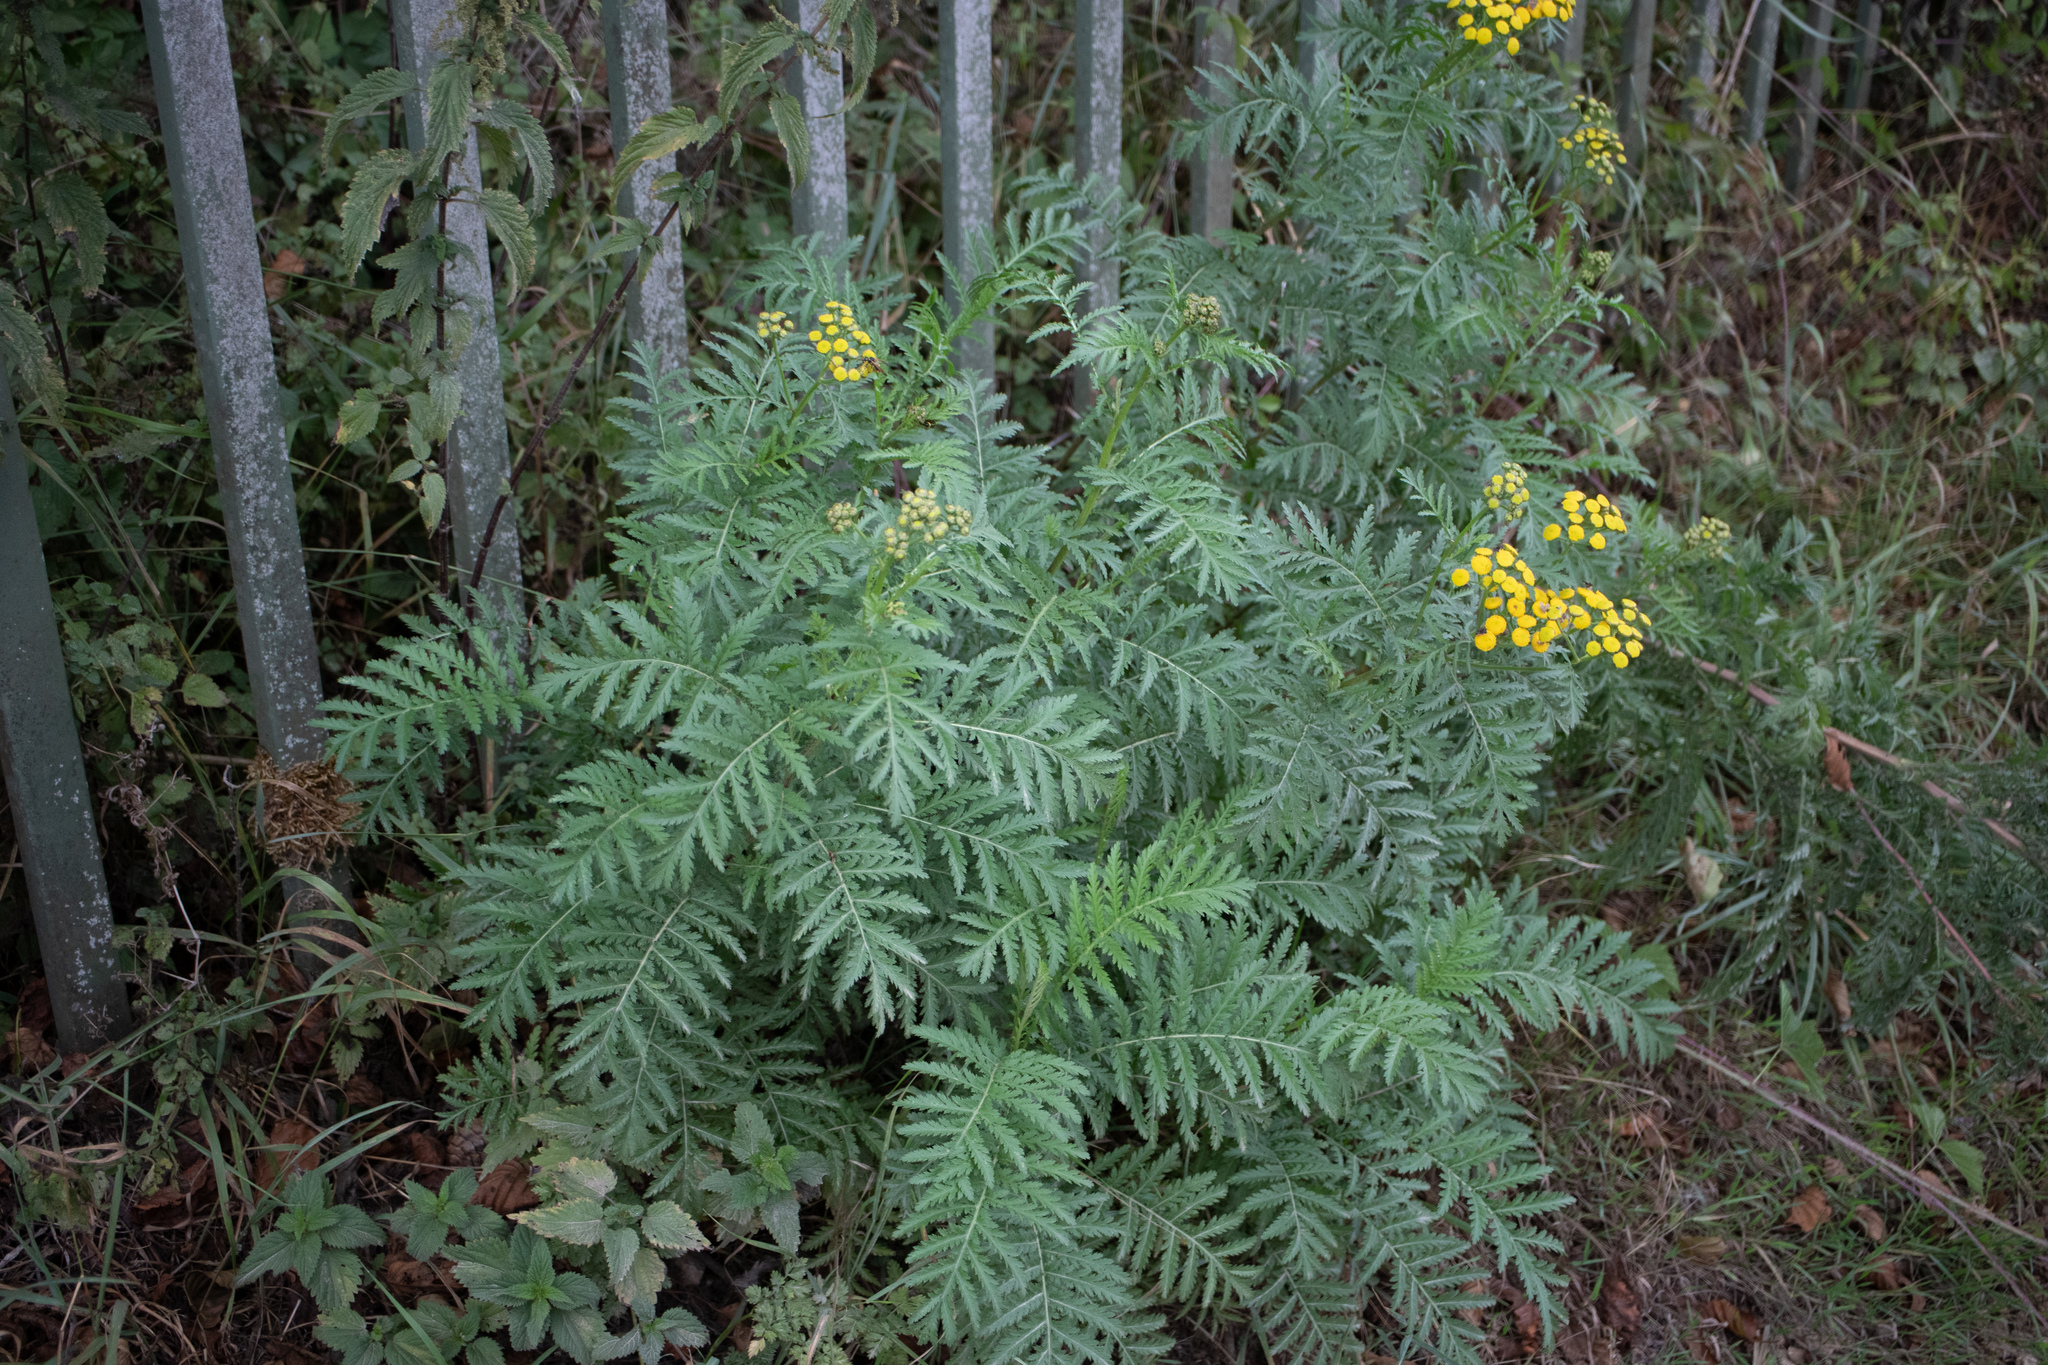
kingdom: Plantae
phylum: Tracheophyta
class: Magnoliopsida
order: Asterales
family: Asteraceae
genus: Tanacetum
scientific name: Tanacetum vulgare
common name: Common tansy
